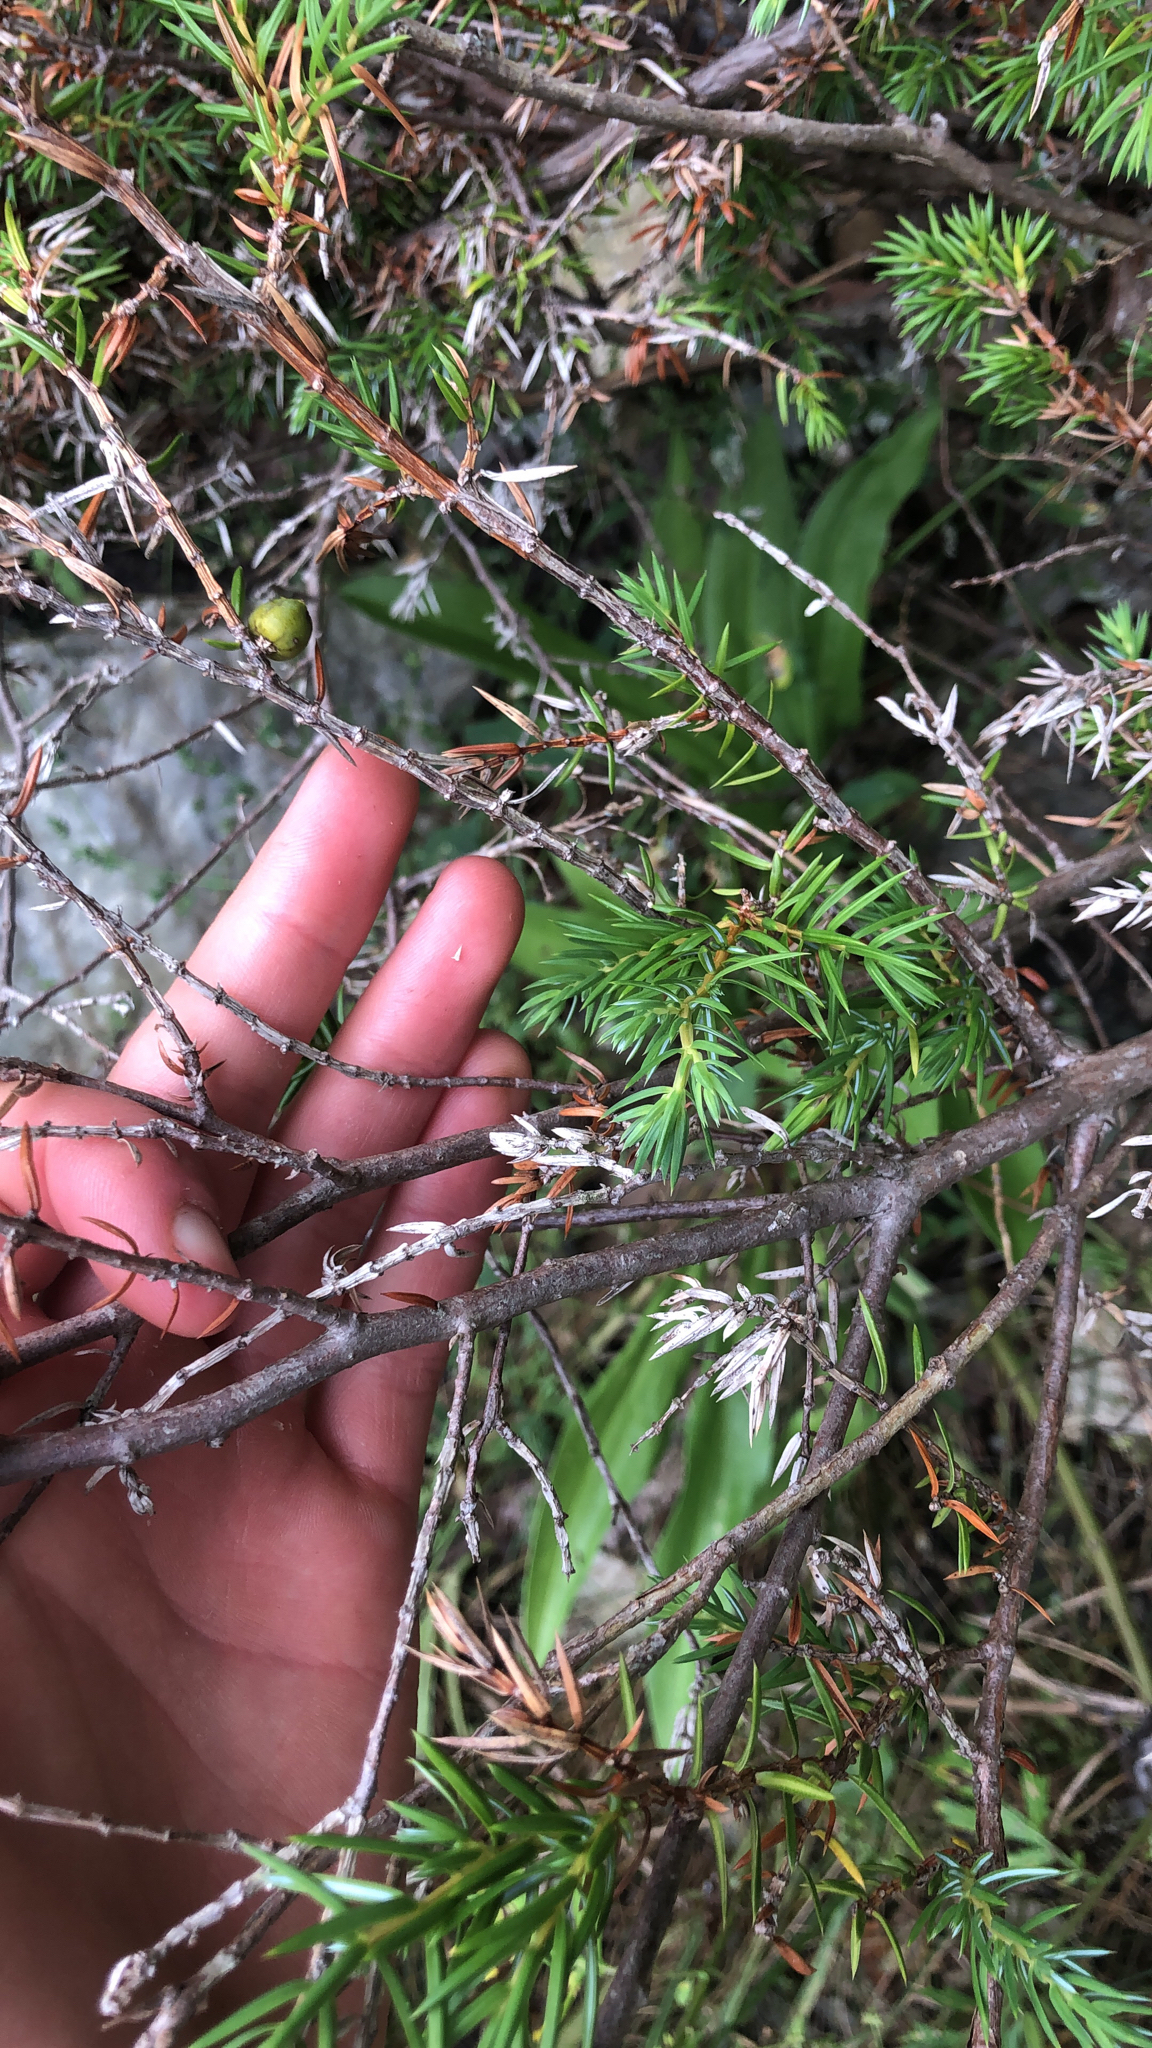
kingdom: Plantae
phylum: Tracheophyta
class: Pinopsida
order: Pinales
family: Cupressaceae
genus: Juniperus
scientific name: Juniperus communis
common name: Common juniper
